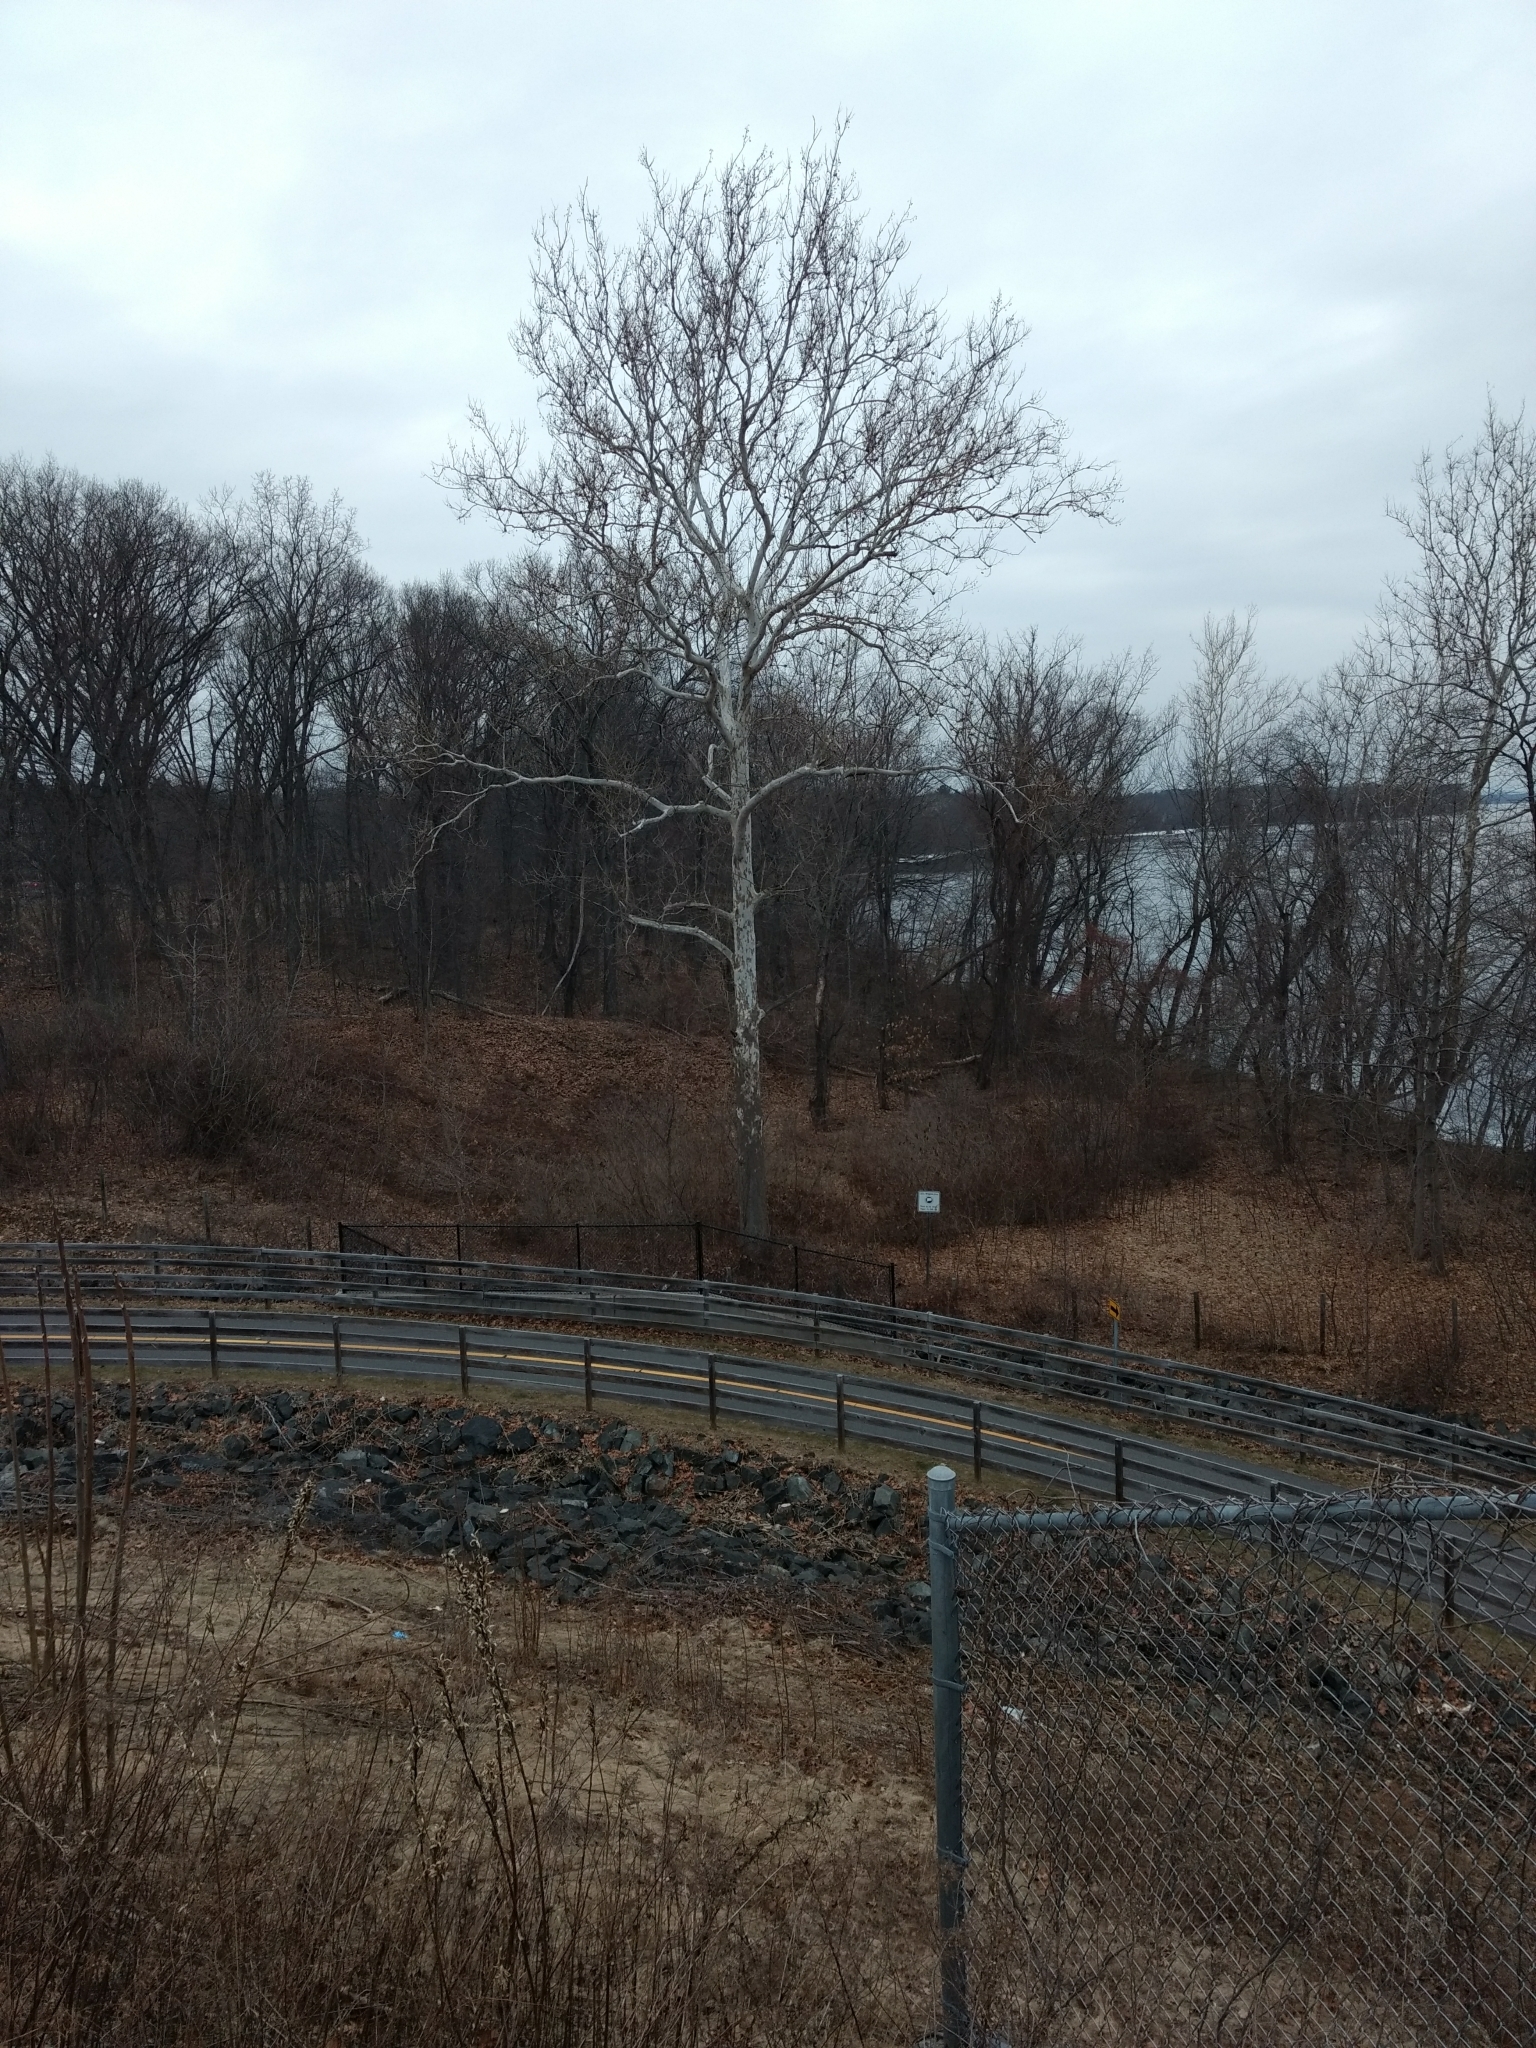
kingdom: Plantae
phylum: Tracheophyta
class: Magnoliopsida
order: Proteales
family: Platanaceae
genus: Platanus
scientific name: Platanus occidentalis
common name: American sycamore
